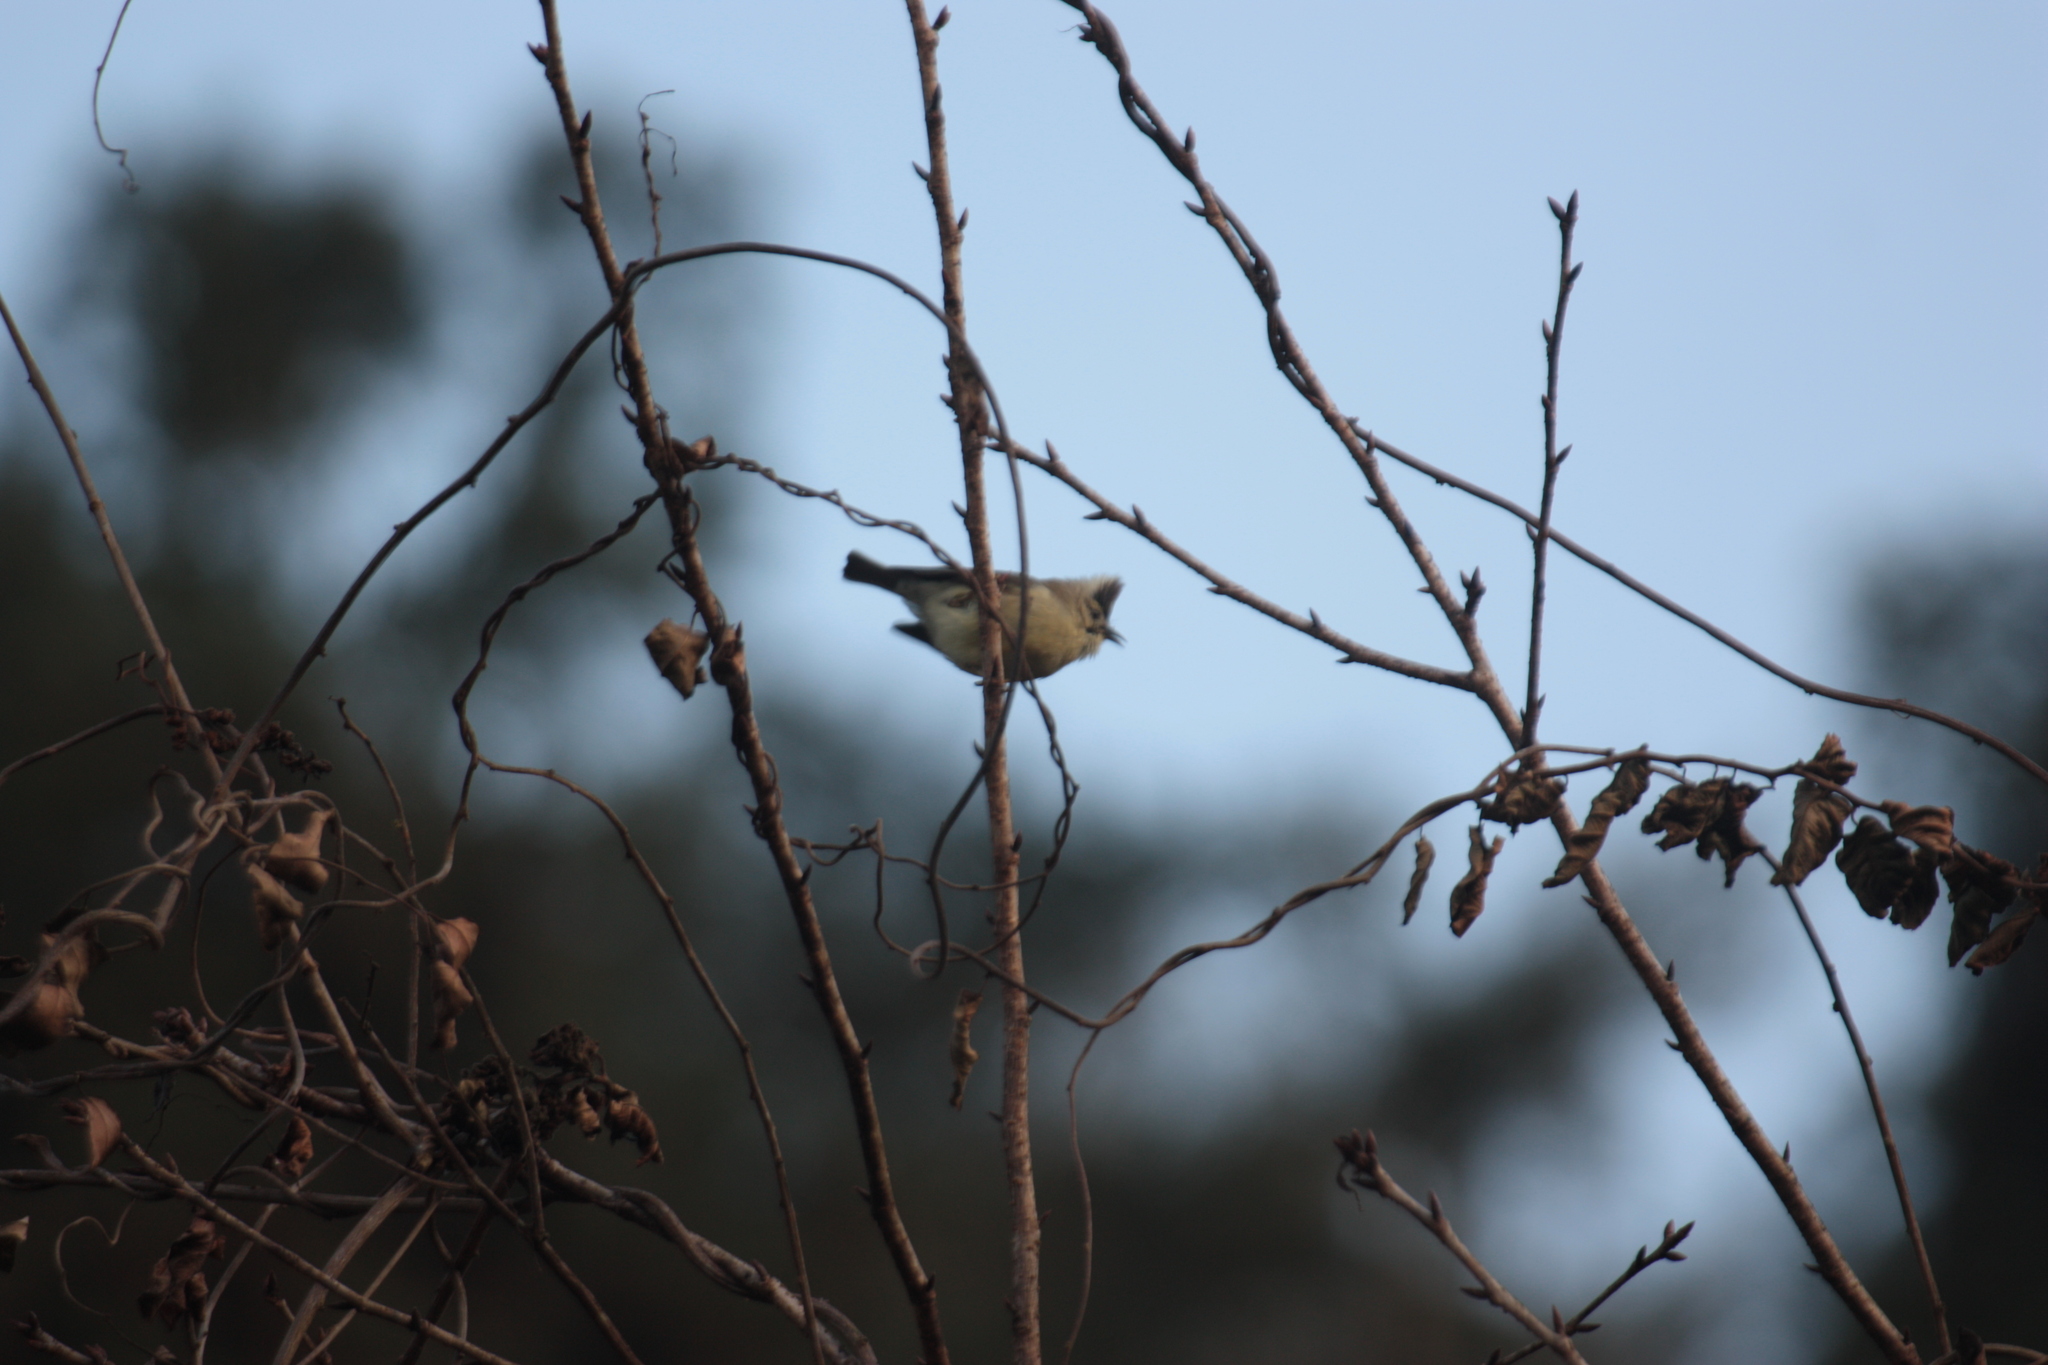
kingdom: Animalia
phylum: Chordata
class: Aves
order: Passeriformes
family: Zosteropidae
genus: Yuhina
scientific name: Yuhina brunneiceps
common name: Taiwan yuhina
